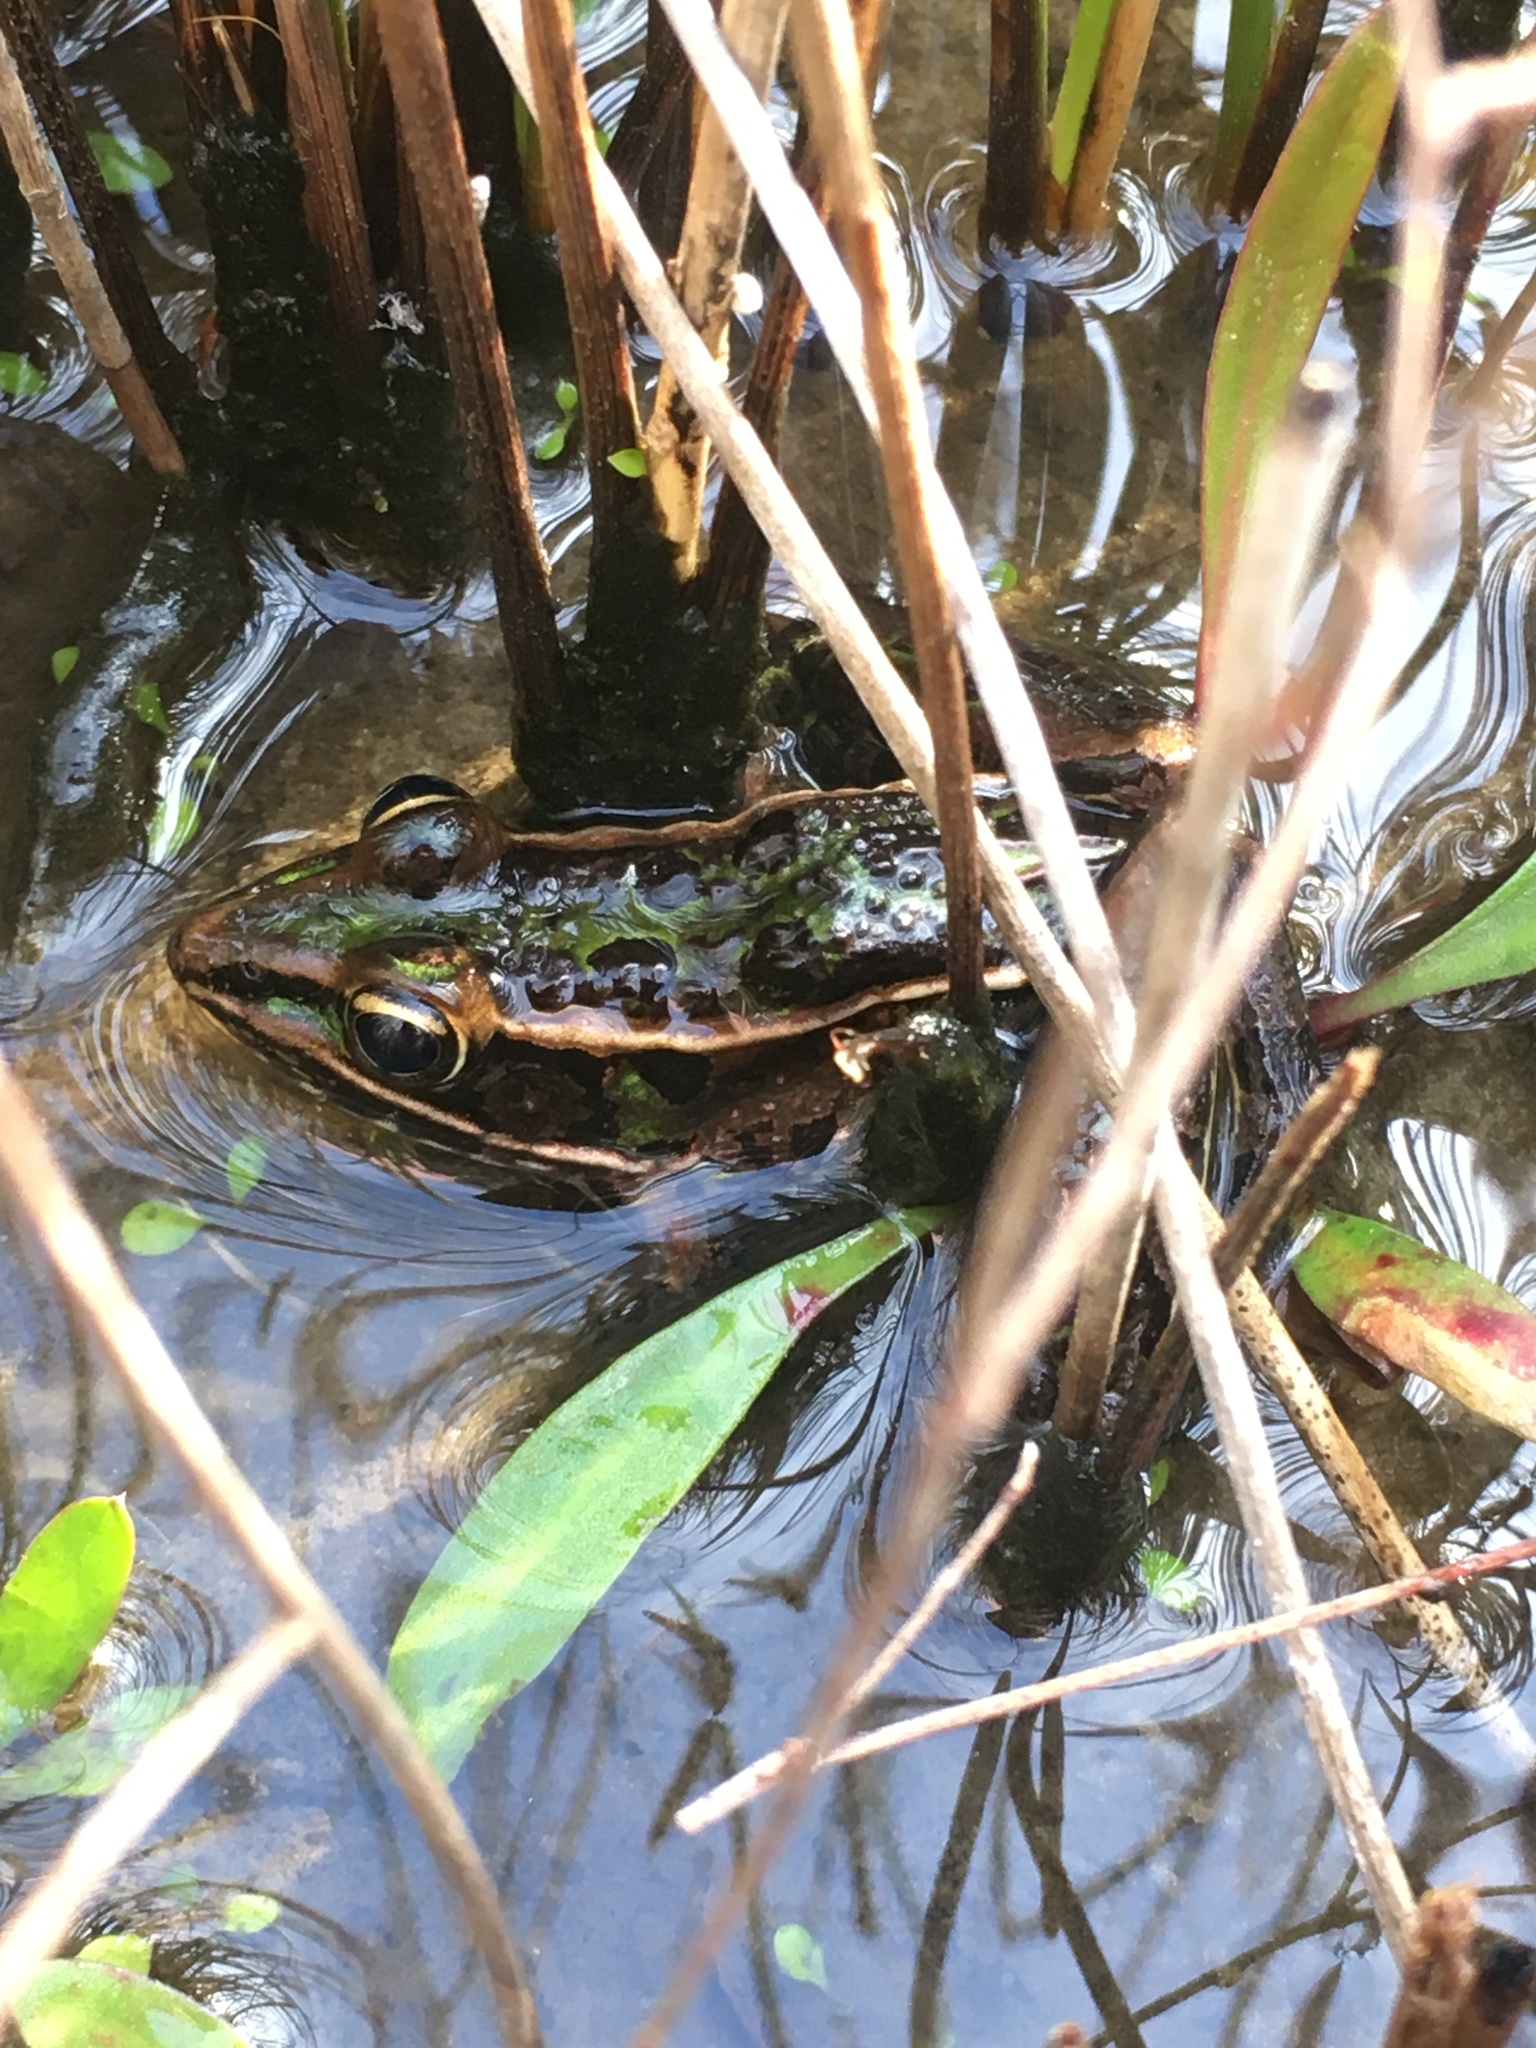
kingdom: Animalia
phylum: Chordata
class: Amphibia
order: Anura
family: Ranidae
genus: Lithobates
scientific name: Lithobates sphenocephalus
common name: Southern leopard frog
